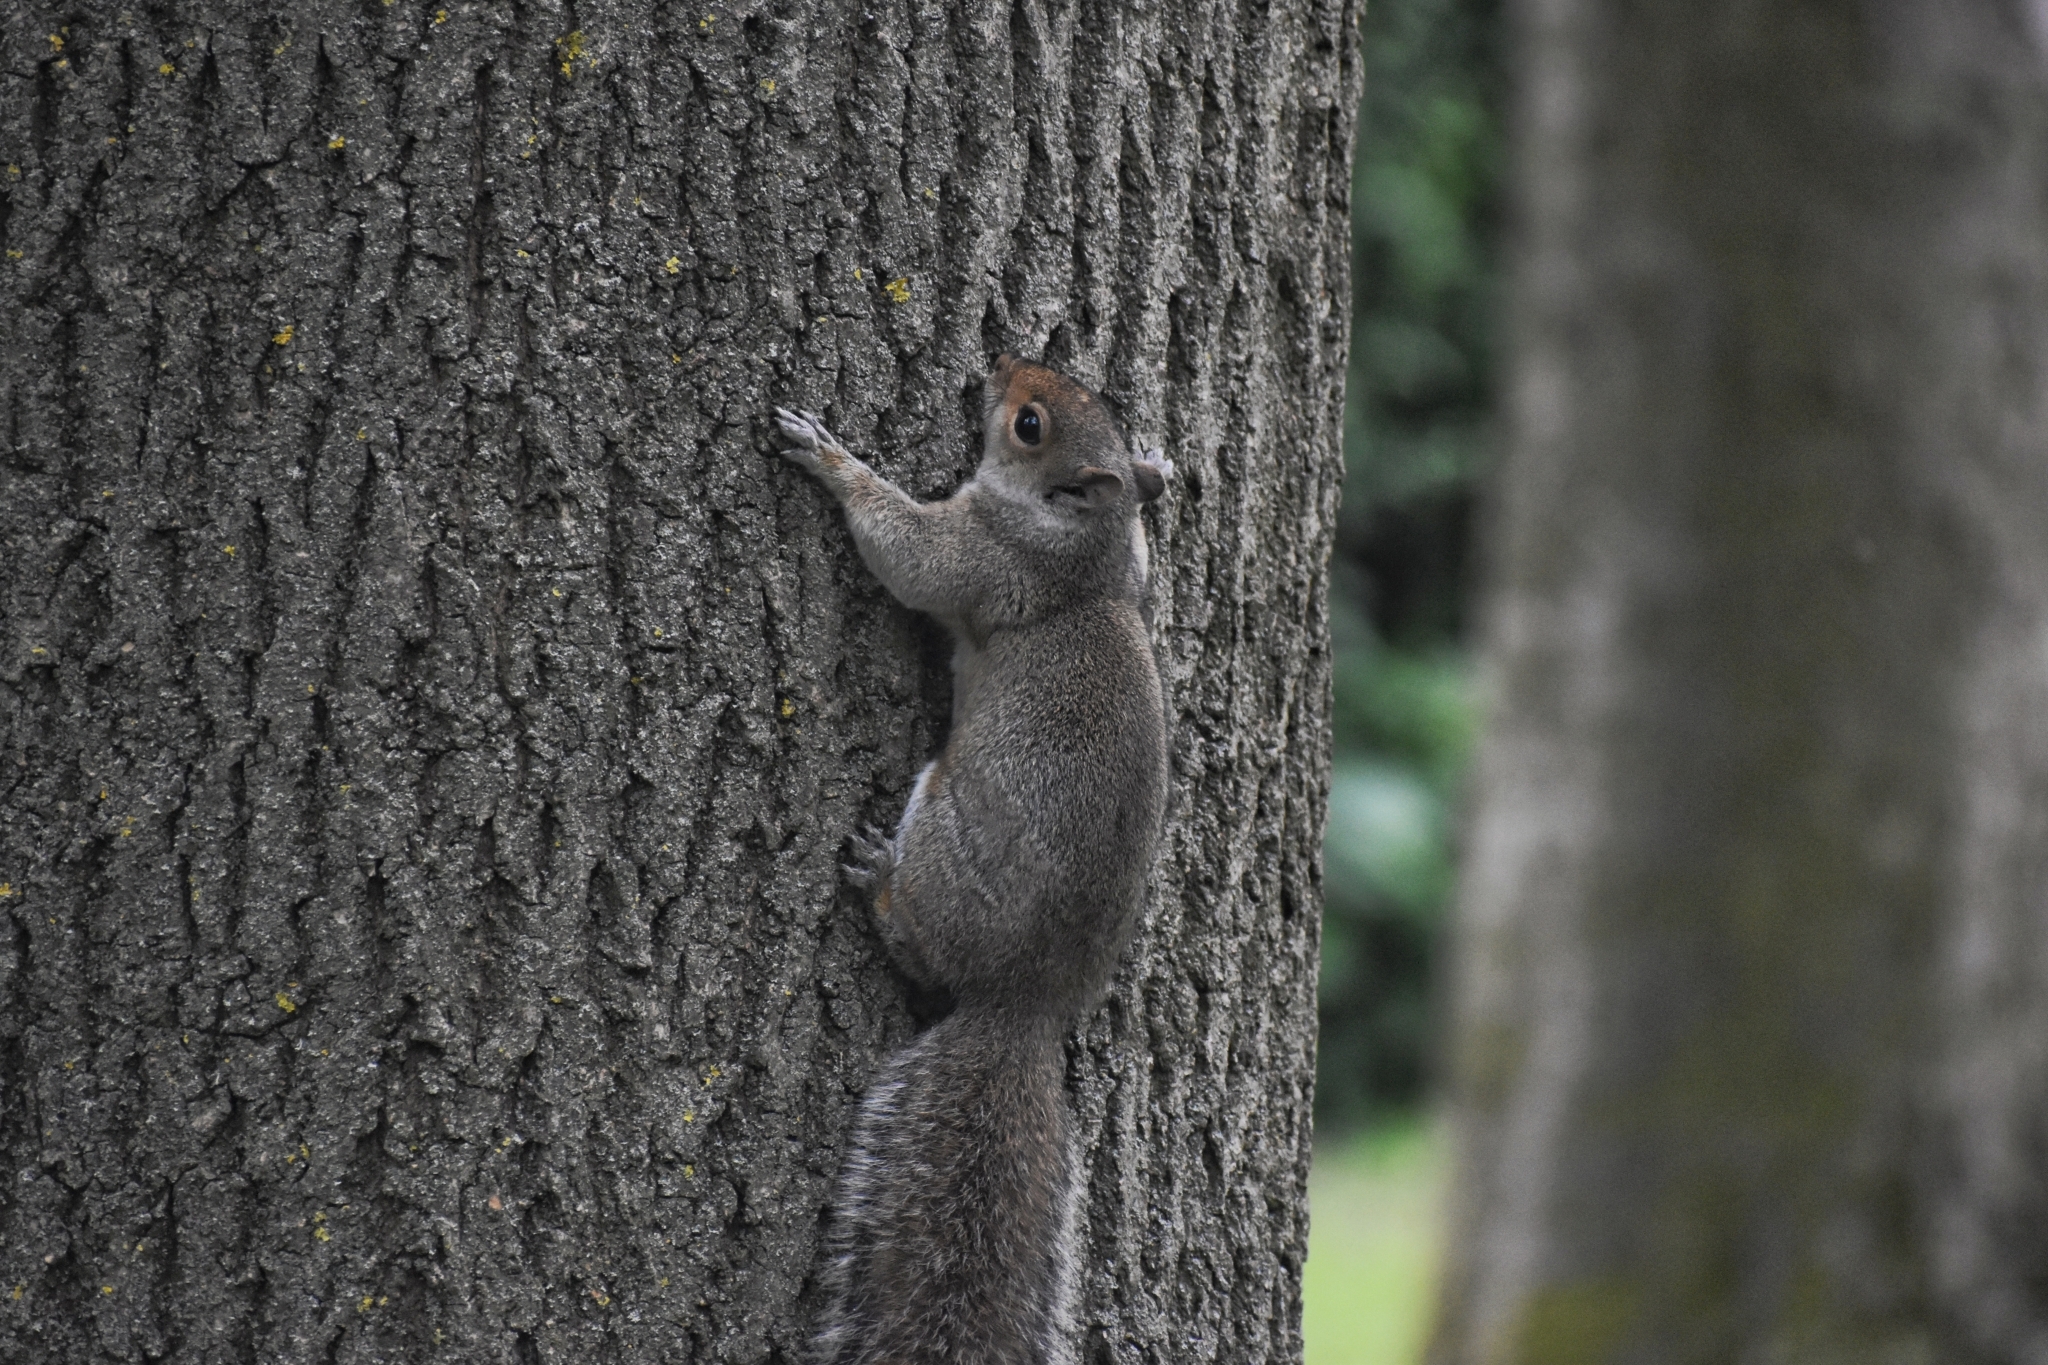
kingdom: Animalia
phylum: Chordata
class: Mammalia
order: Rodentia
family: Sciuridae
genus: Sciurus
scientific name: Sciurus carolinensis
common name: Eastern gray squirrel
